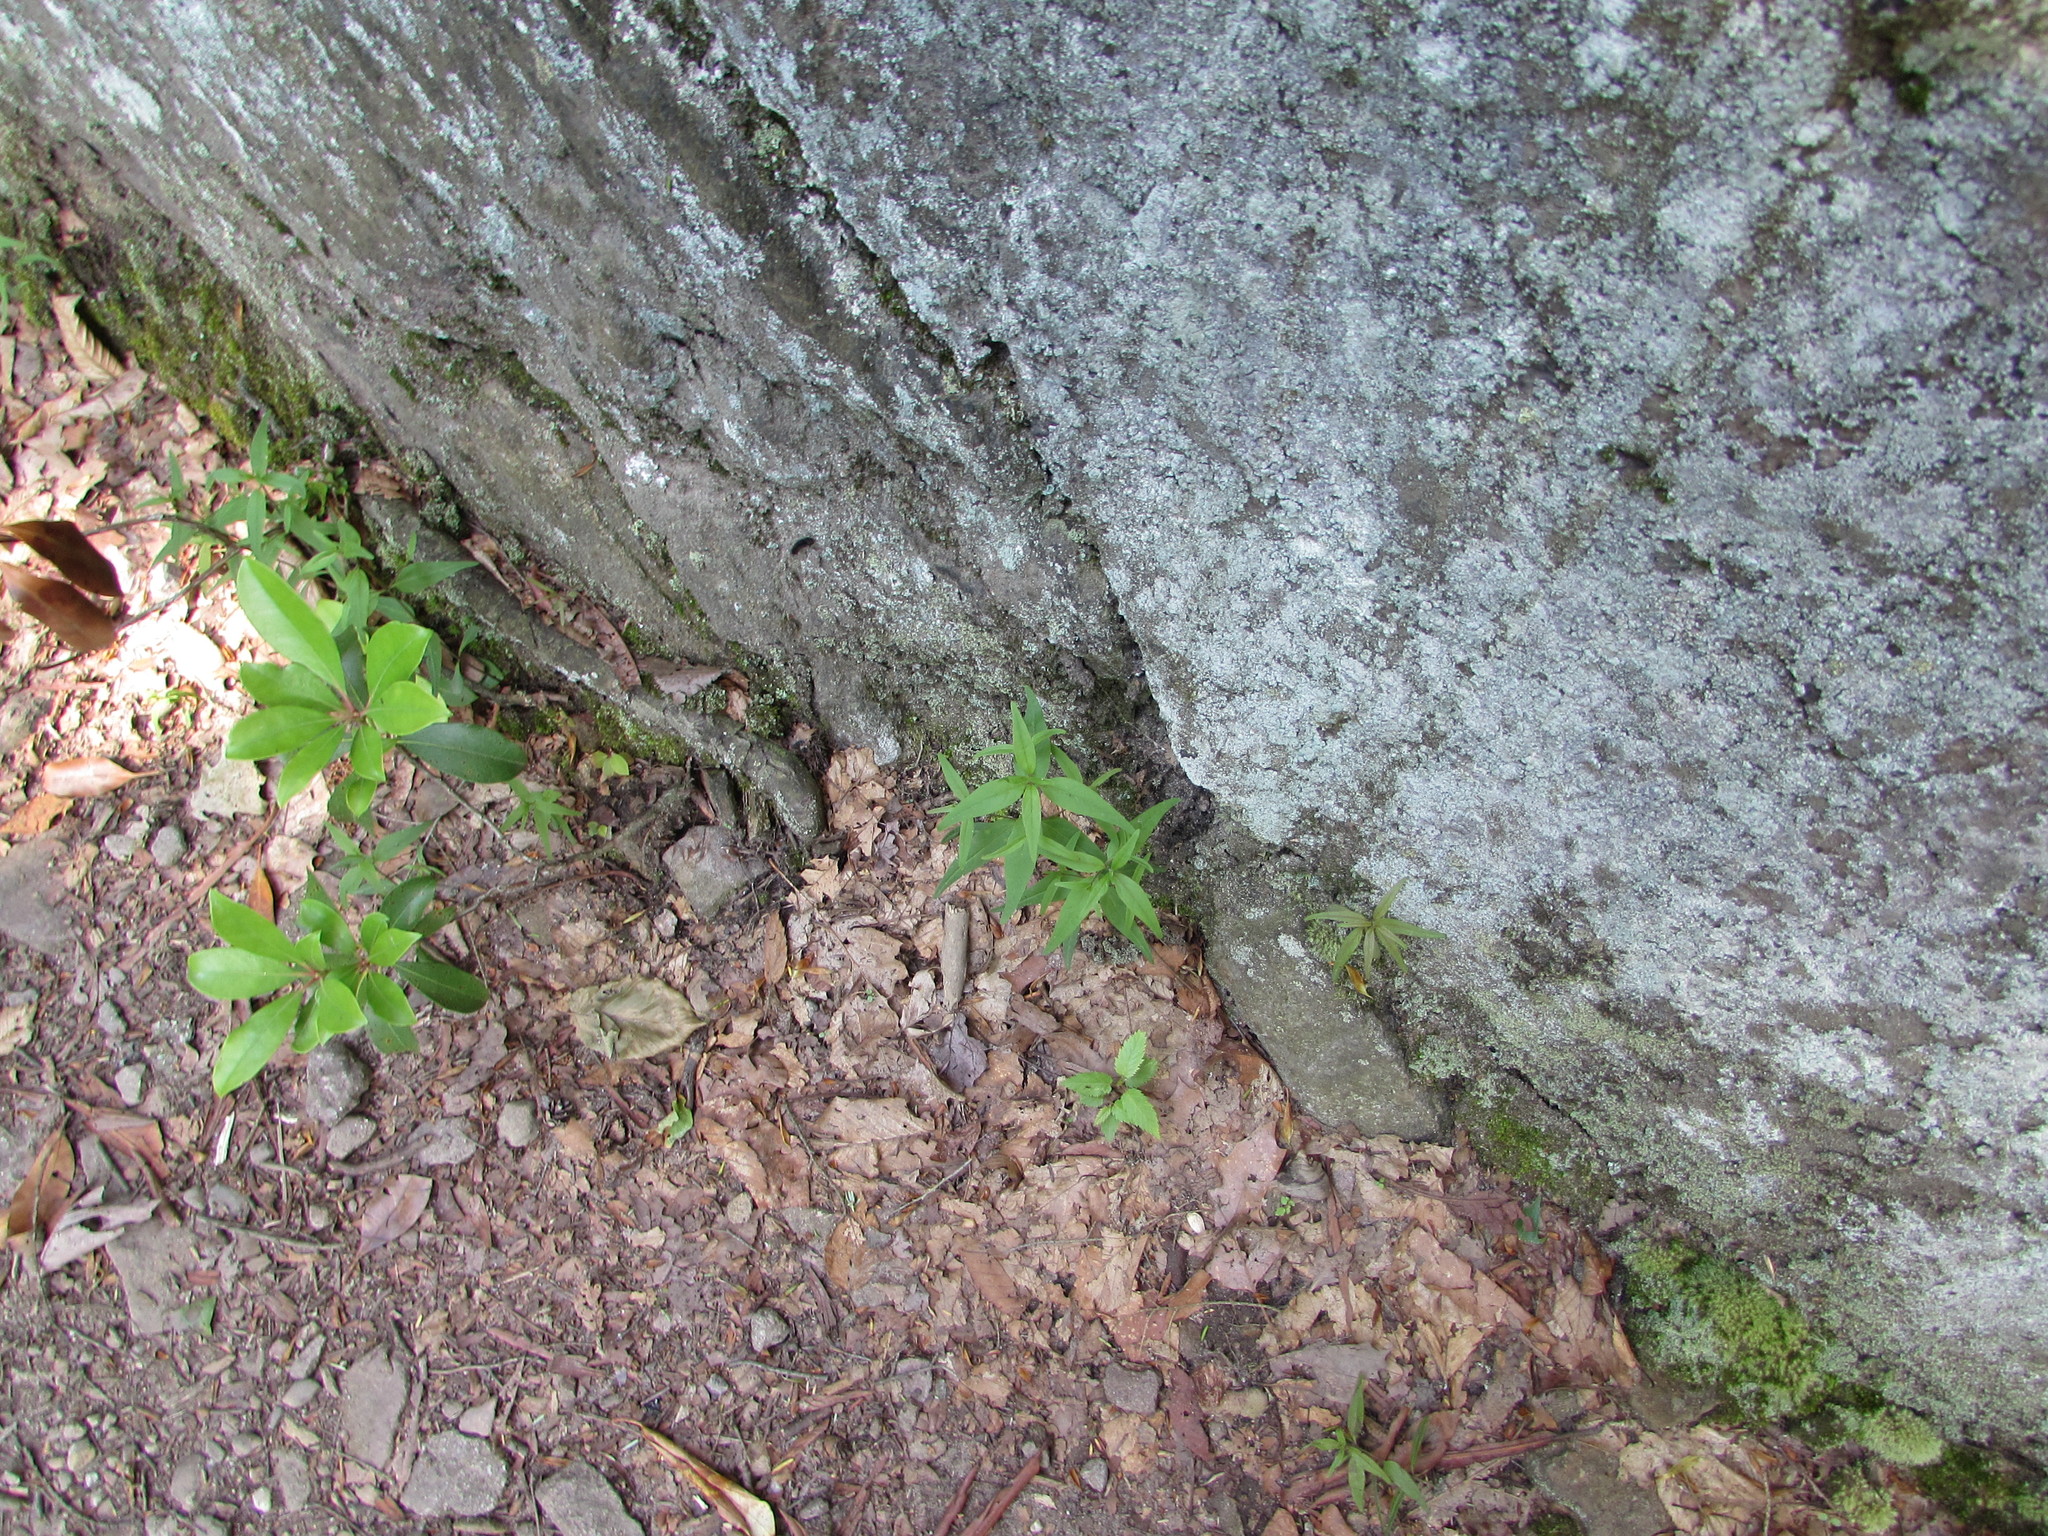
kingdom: Plantae
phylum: Tracheophyta
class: Magnoliopsida
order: Lamiales
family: Orobanchaceae
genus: Melampyrum
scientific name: Melampyrum lineare
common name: American cow-wheat
